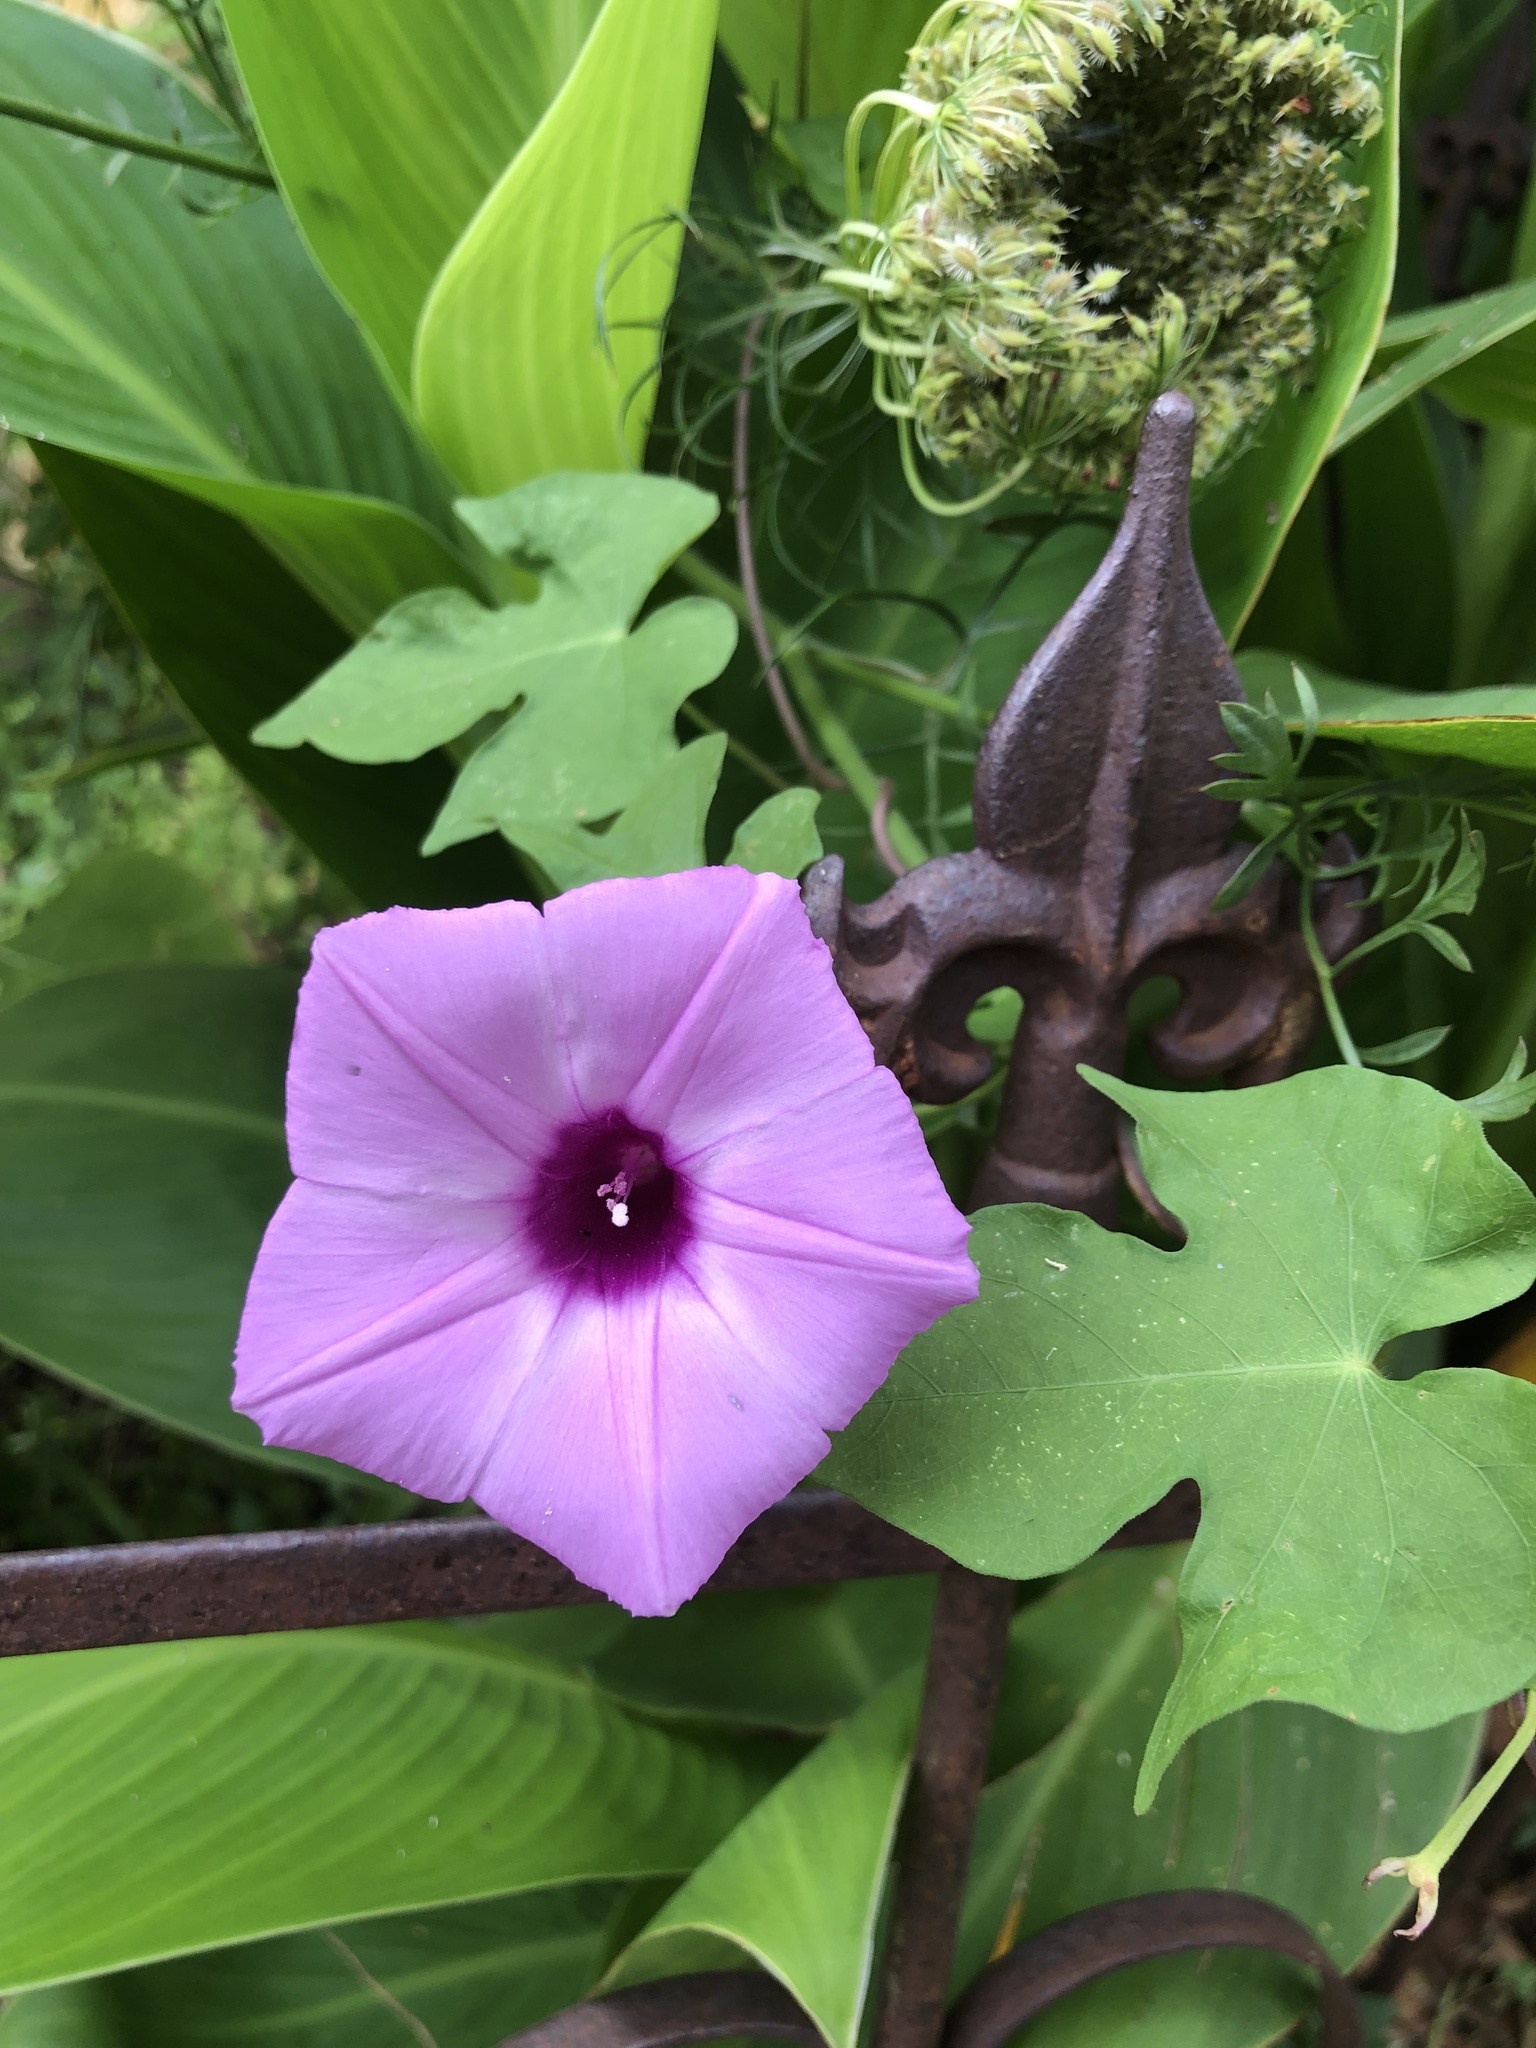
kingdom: Plantae
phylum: Tracheophyta
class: Magnoliopsida
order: Solanales
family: Convolvulaceae
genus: Ipomoea
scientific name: Ipomoea cordatotriloba
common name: Cotton morning glory
